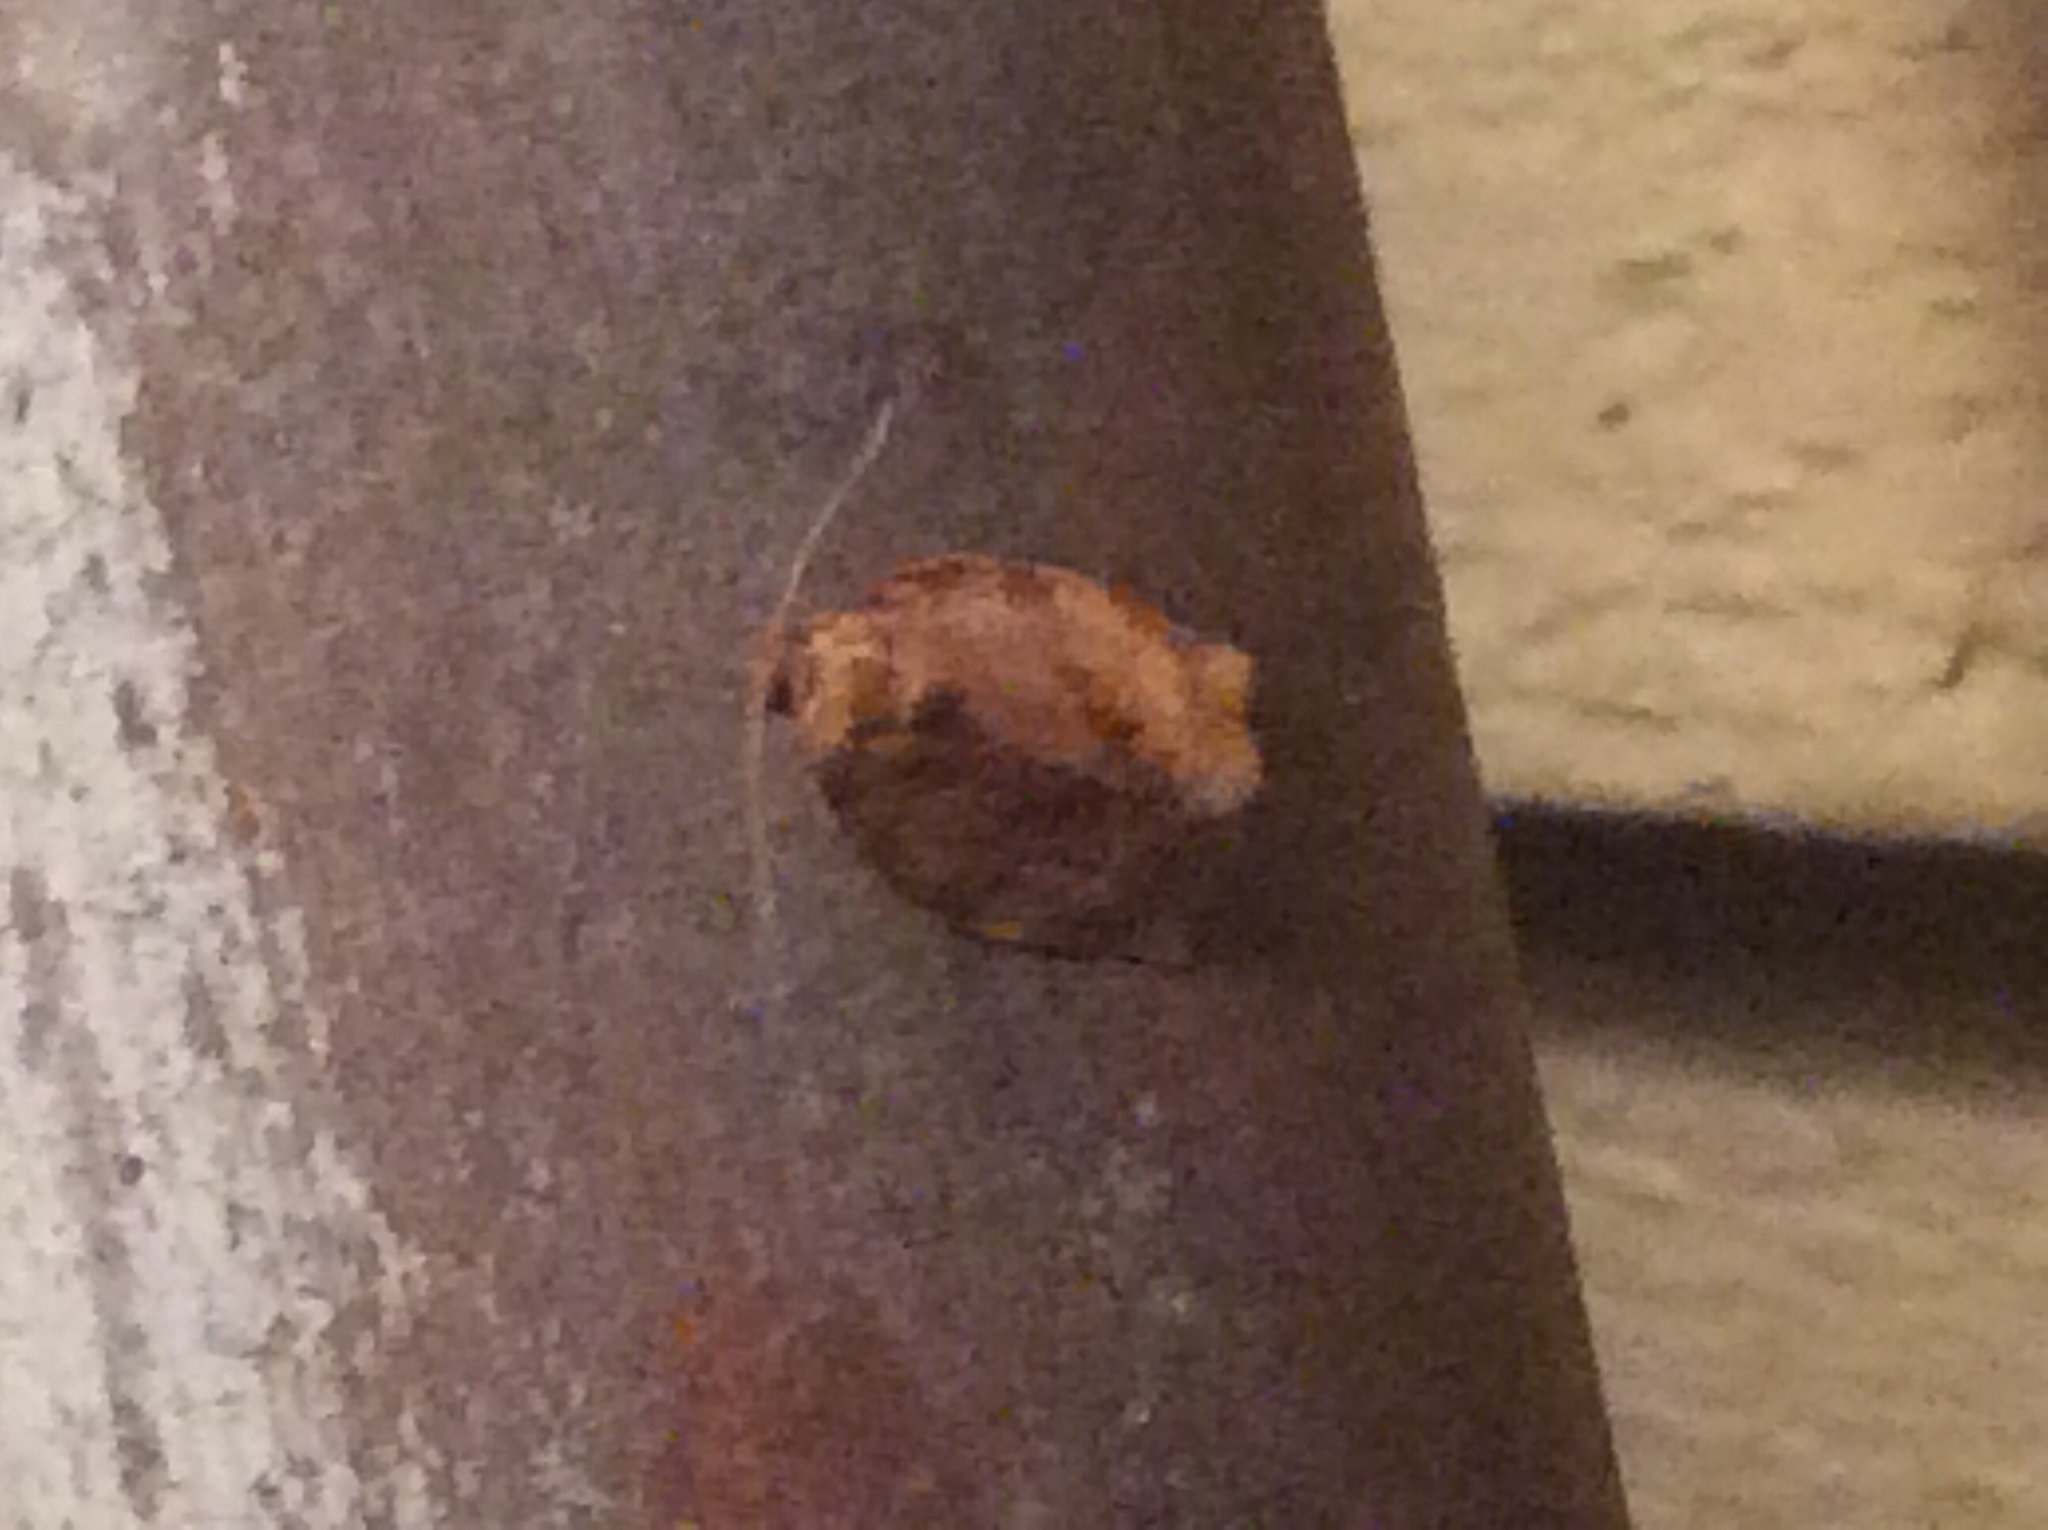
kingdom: Animalia
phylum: Arthropoda
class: Insecta
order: Lepidoptera
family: Tortricidae
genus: Choristoneura
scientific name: Choristoneura rosaceana
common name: Oblique-banded leafroller moth
